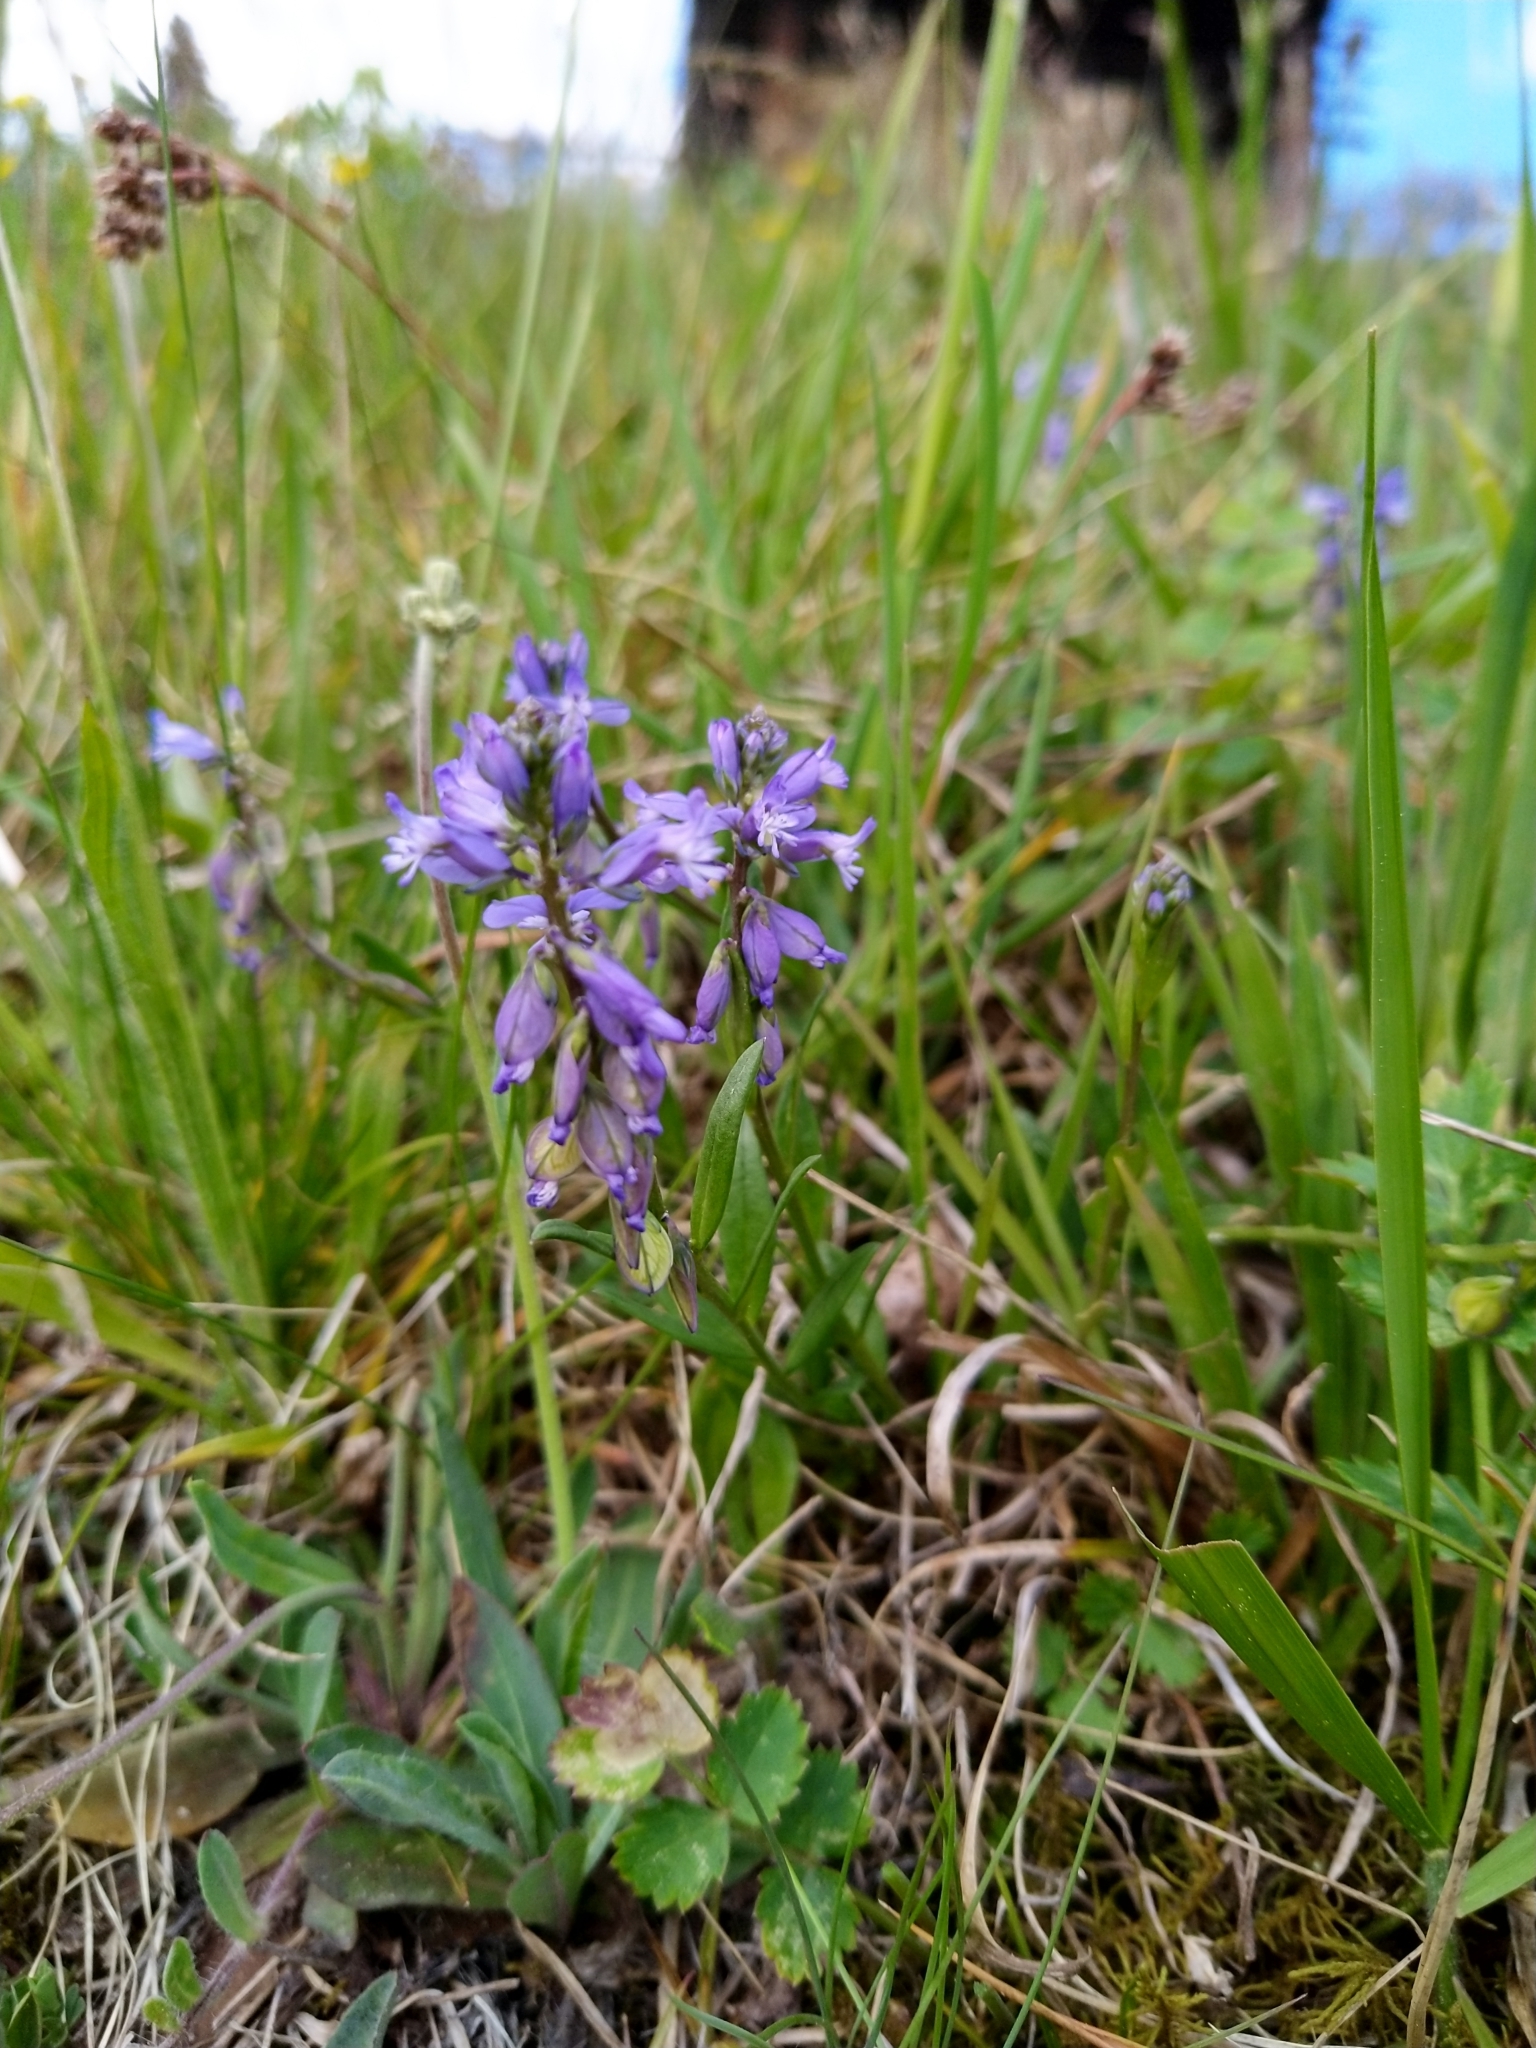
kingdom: Plantae
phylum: Tracheophyta
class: Magnoliopsida
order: Fabales
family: Polygalaceae
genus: Polygala
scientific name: Polygala vulgaris
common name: Common milkwort
